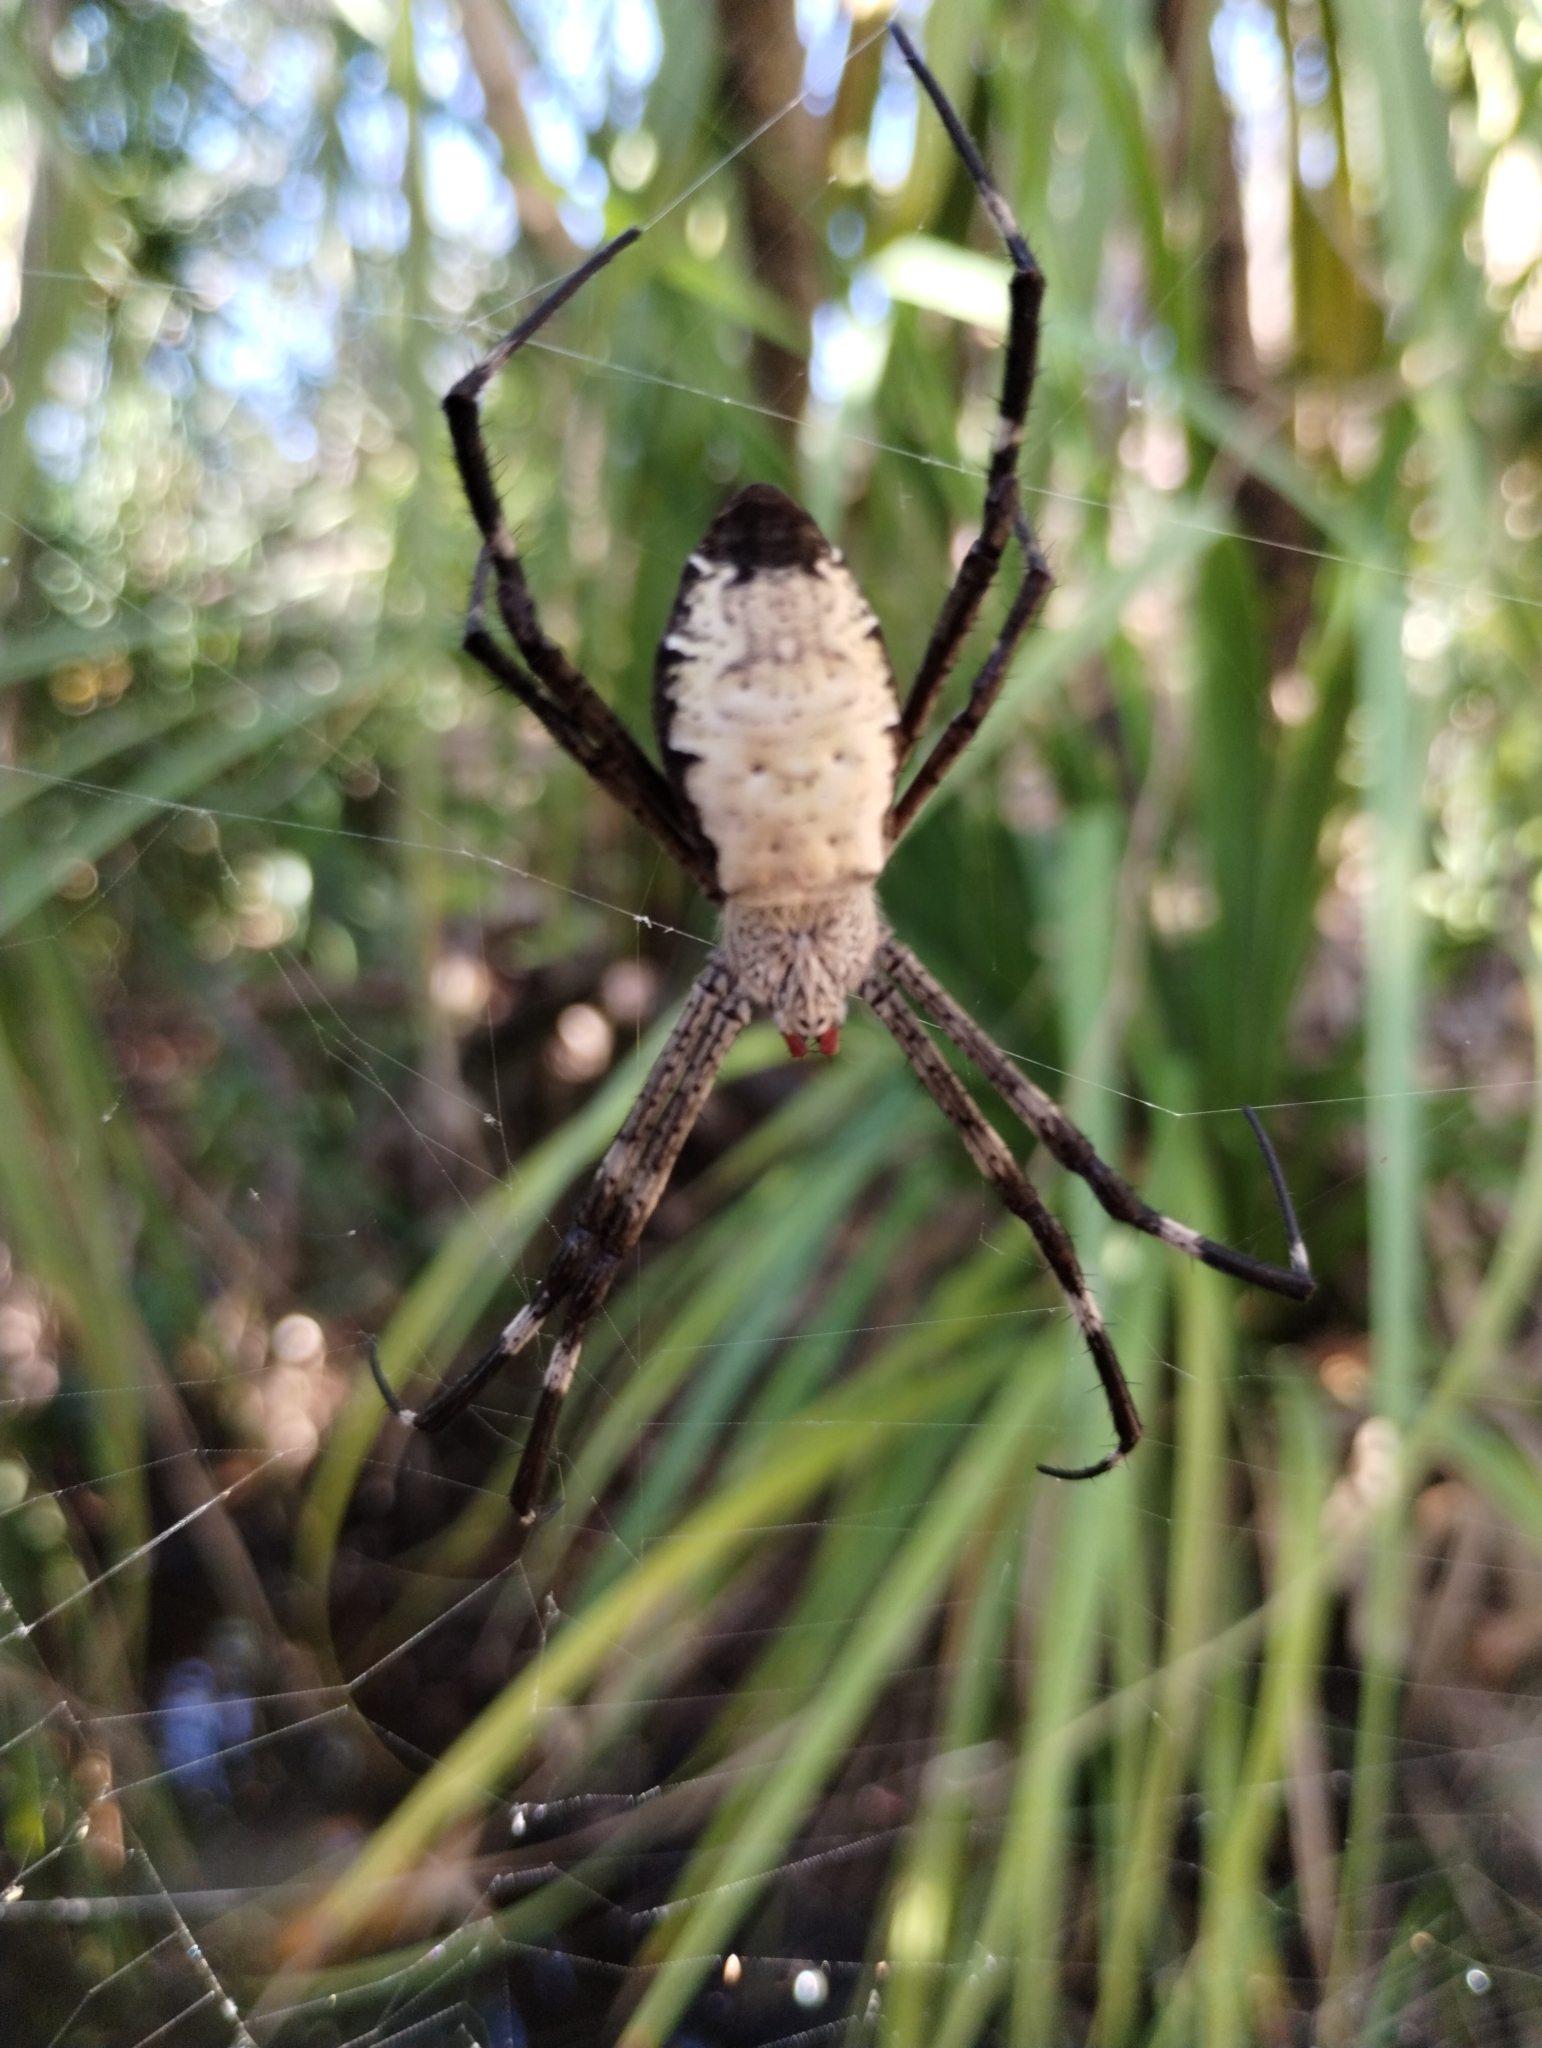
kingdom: Animalia
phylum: Arthropoda
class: Arachnida
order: Araneae
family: Araneidae
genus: Argiope
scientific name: Argiope radon
